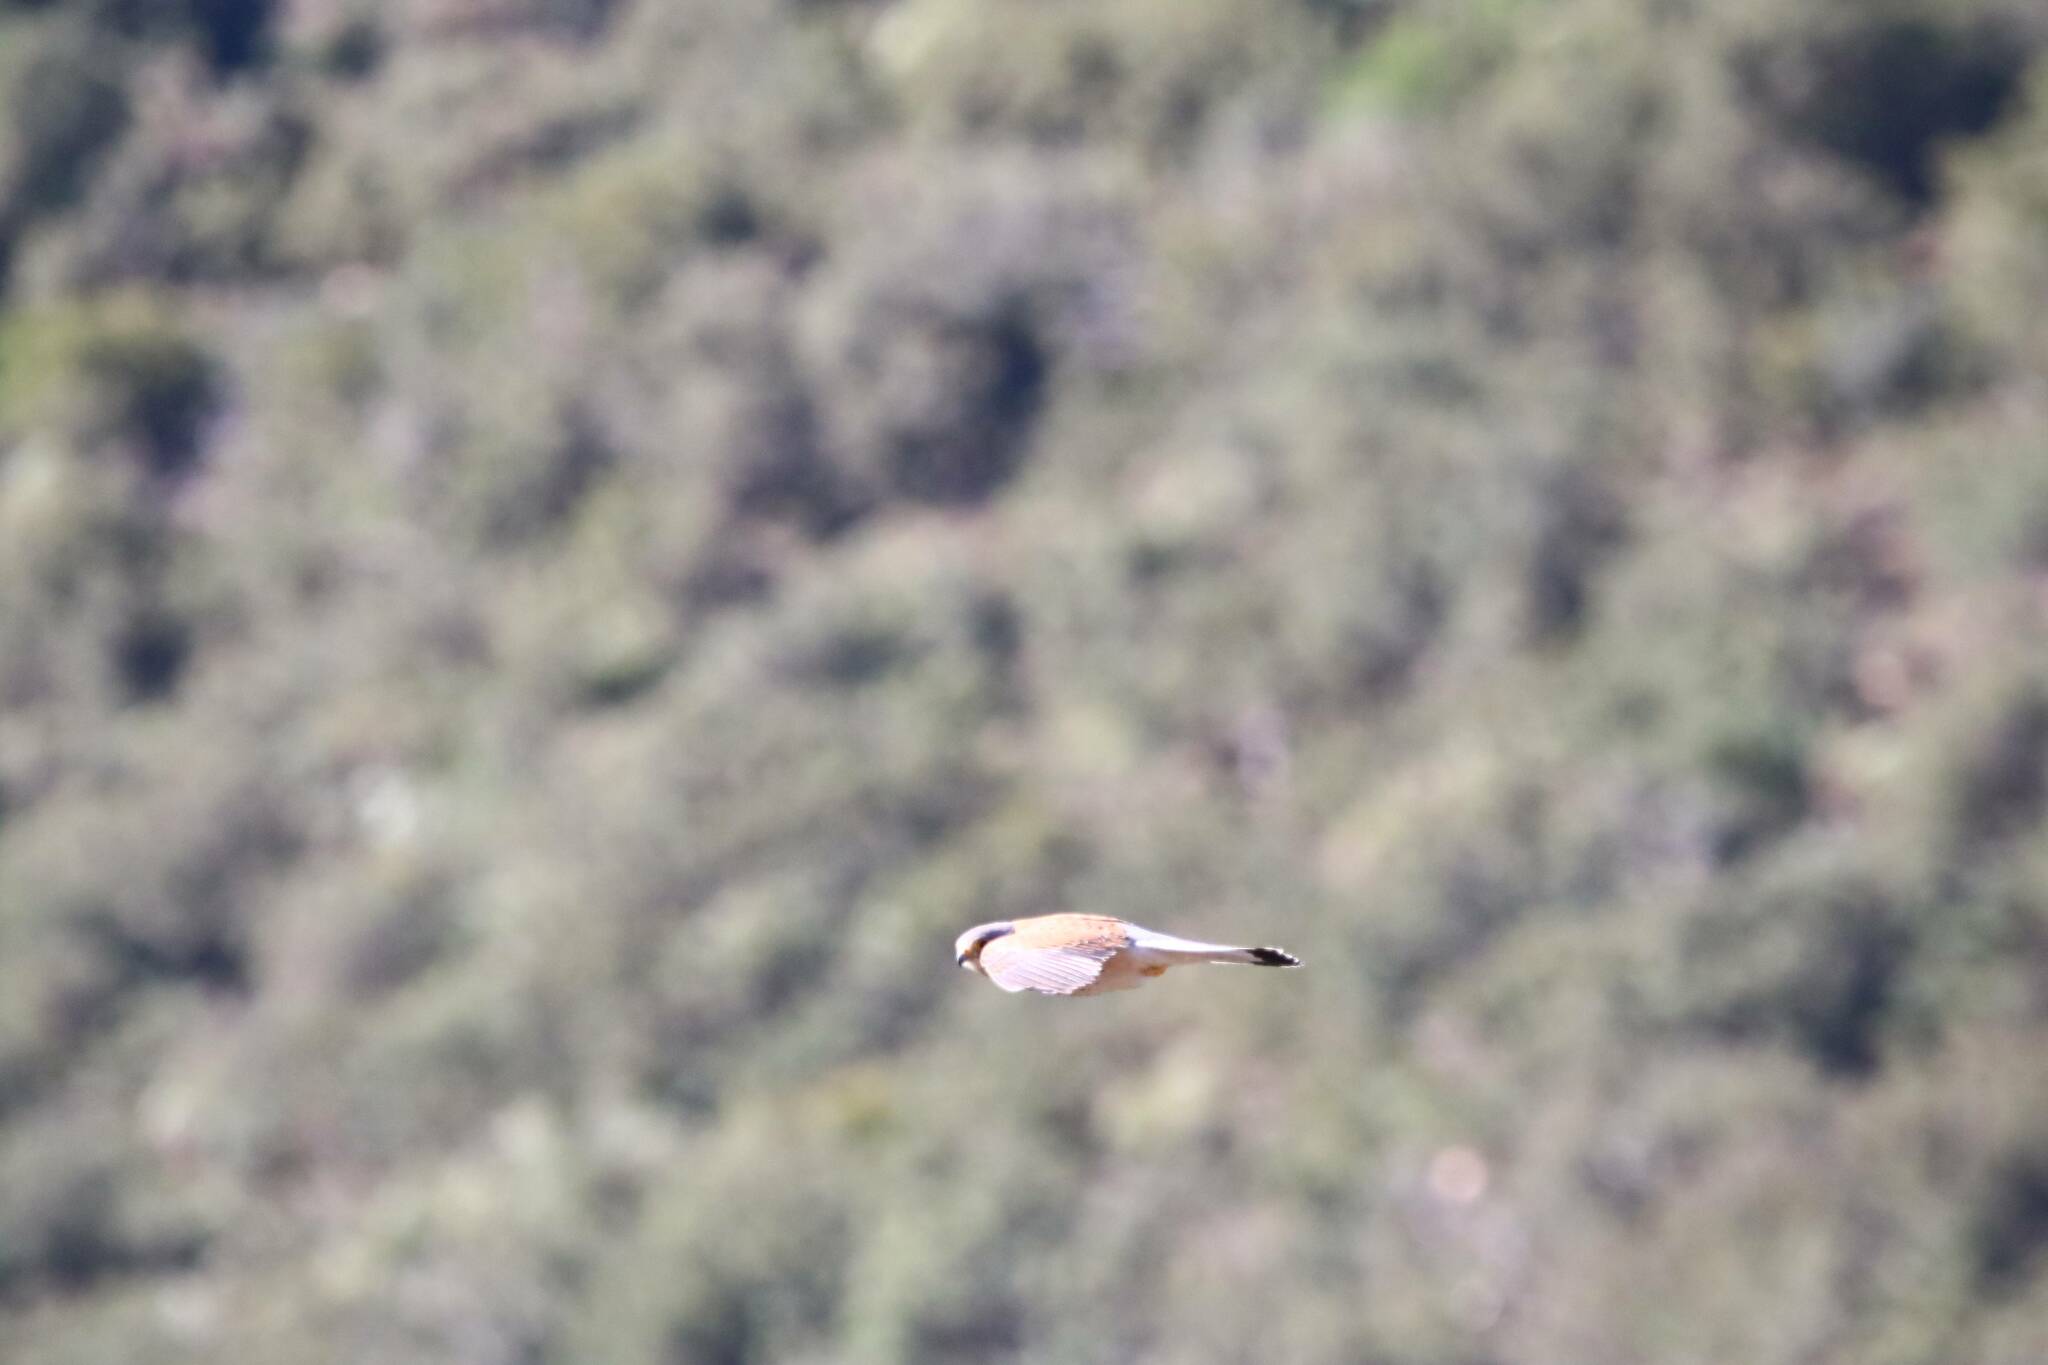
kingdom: Animalia
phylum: Chordata
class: Aves
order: Falconiformes
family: Falconidae
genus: Falco
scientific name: Falco naumanni
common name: Lesser kestrel
